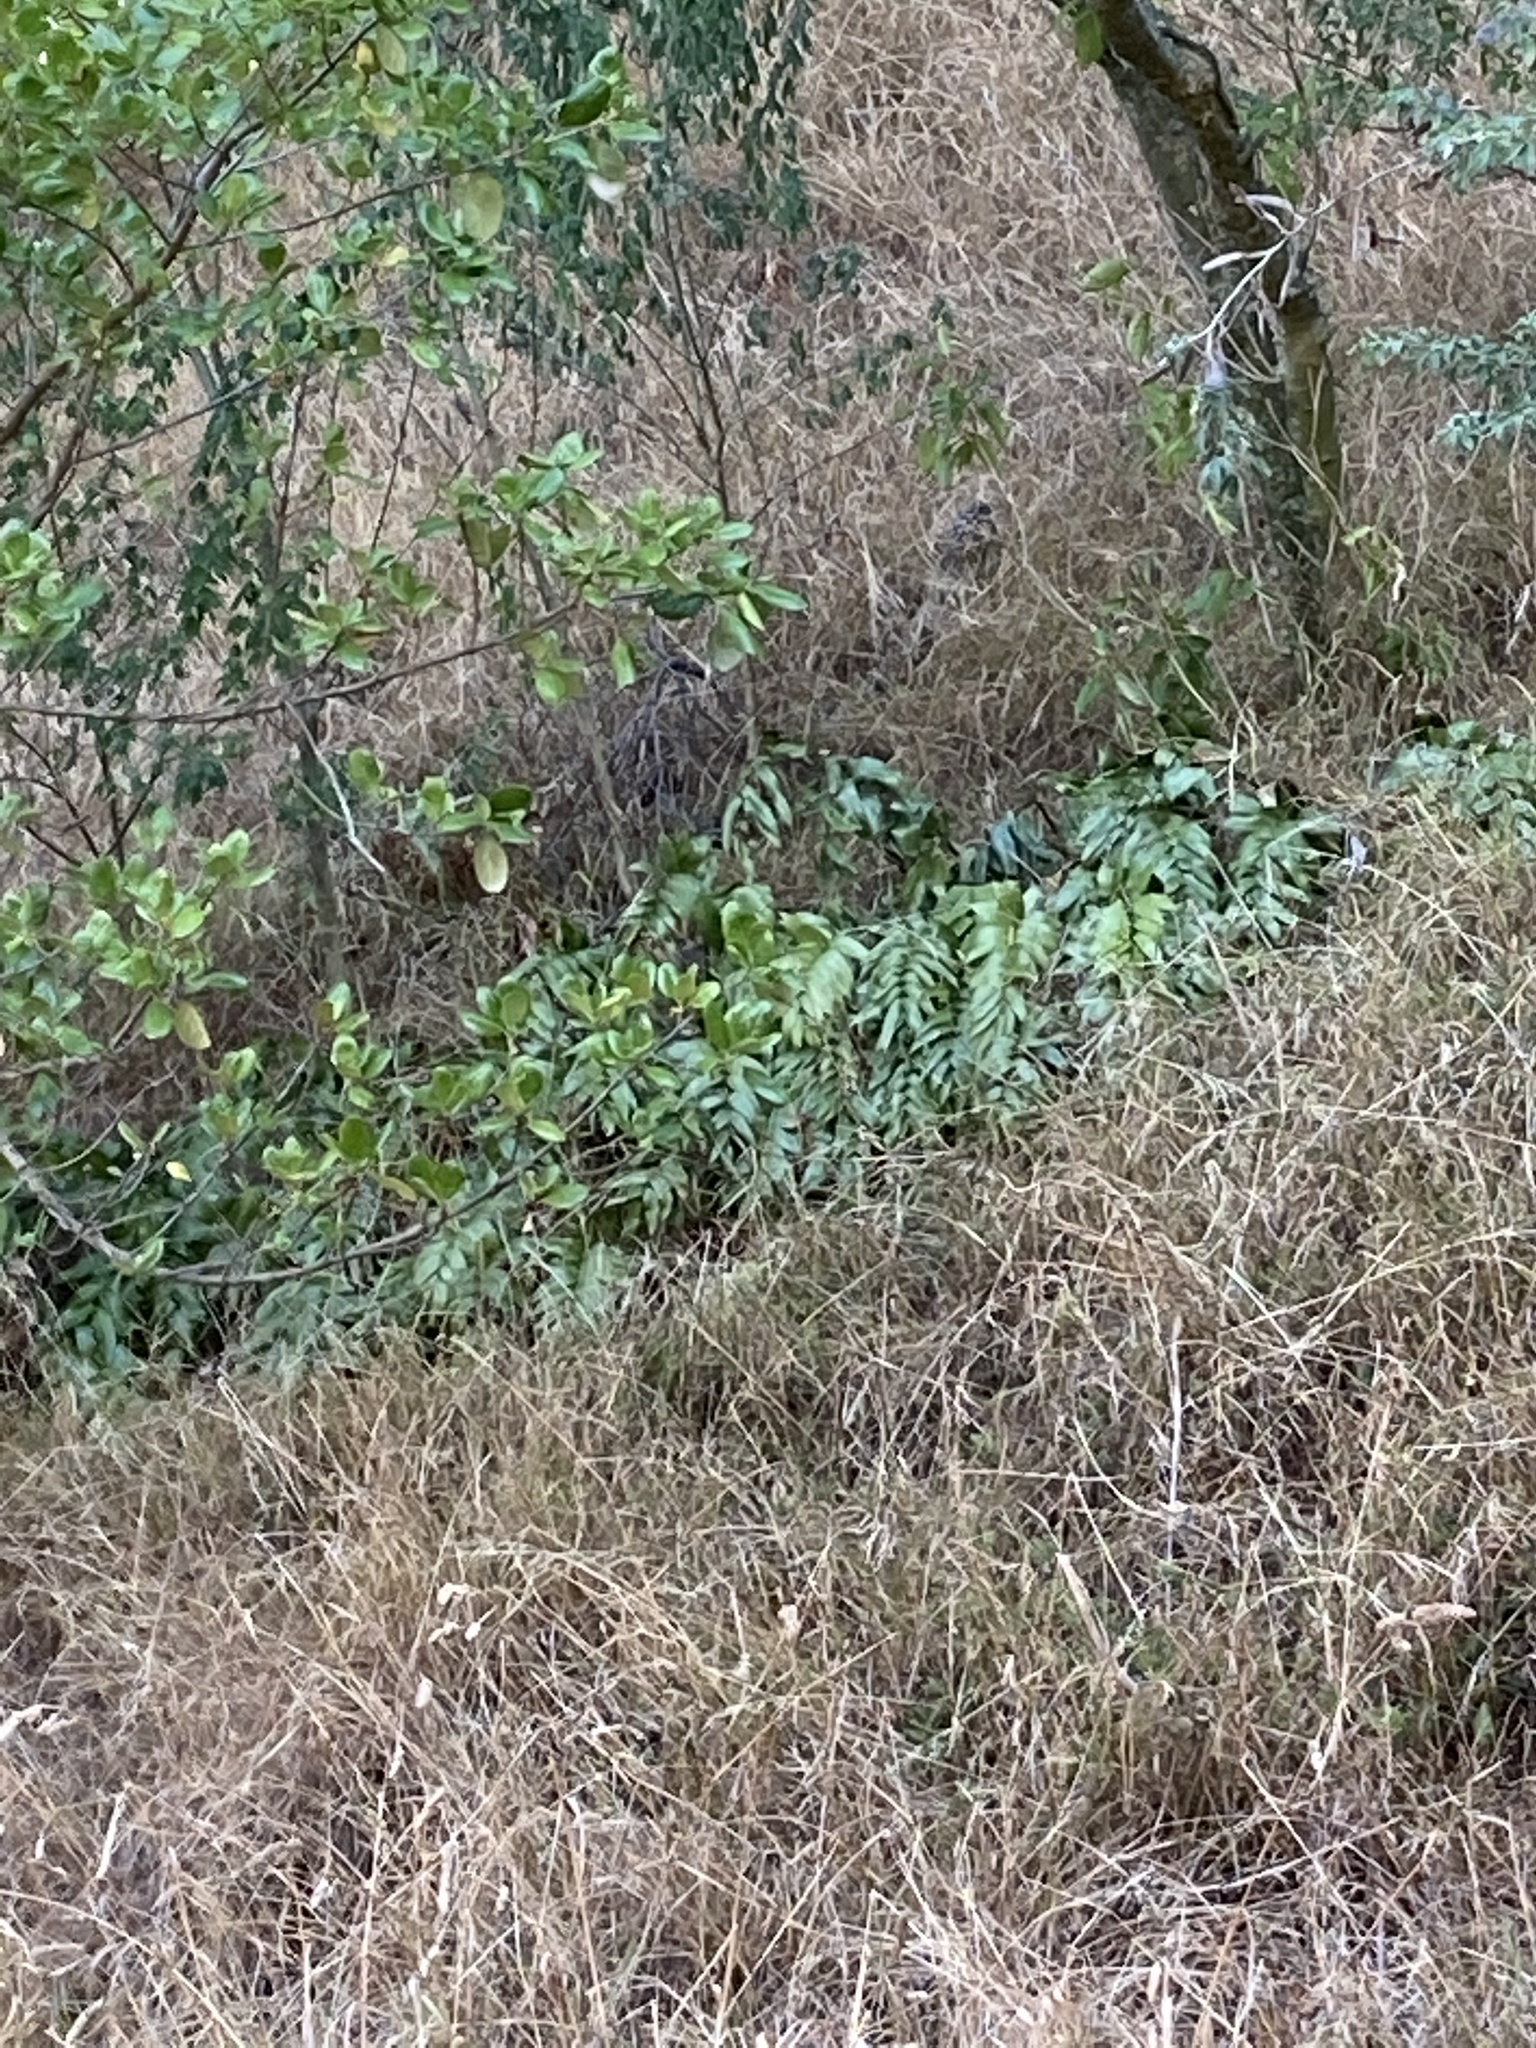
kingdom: Plantae
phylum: Tracheophyta
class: Polypodiopsida
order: Polypodiales
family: Aspleniaceae
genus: Asplenium
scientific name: Asplenium oblongifolium
